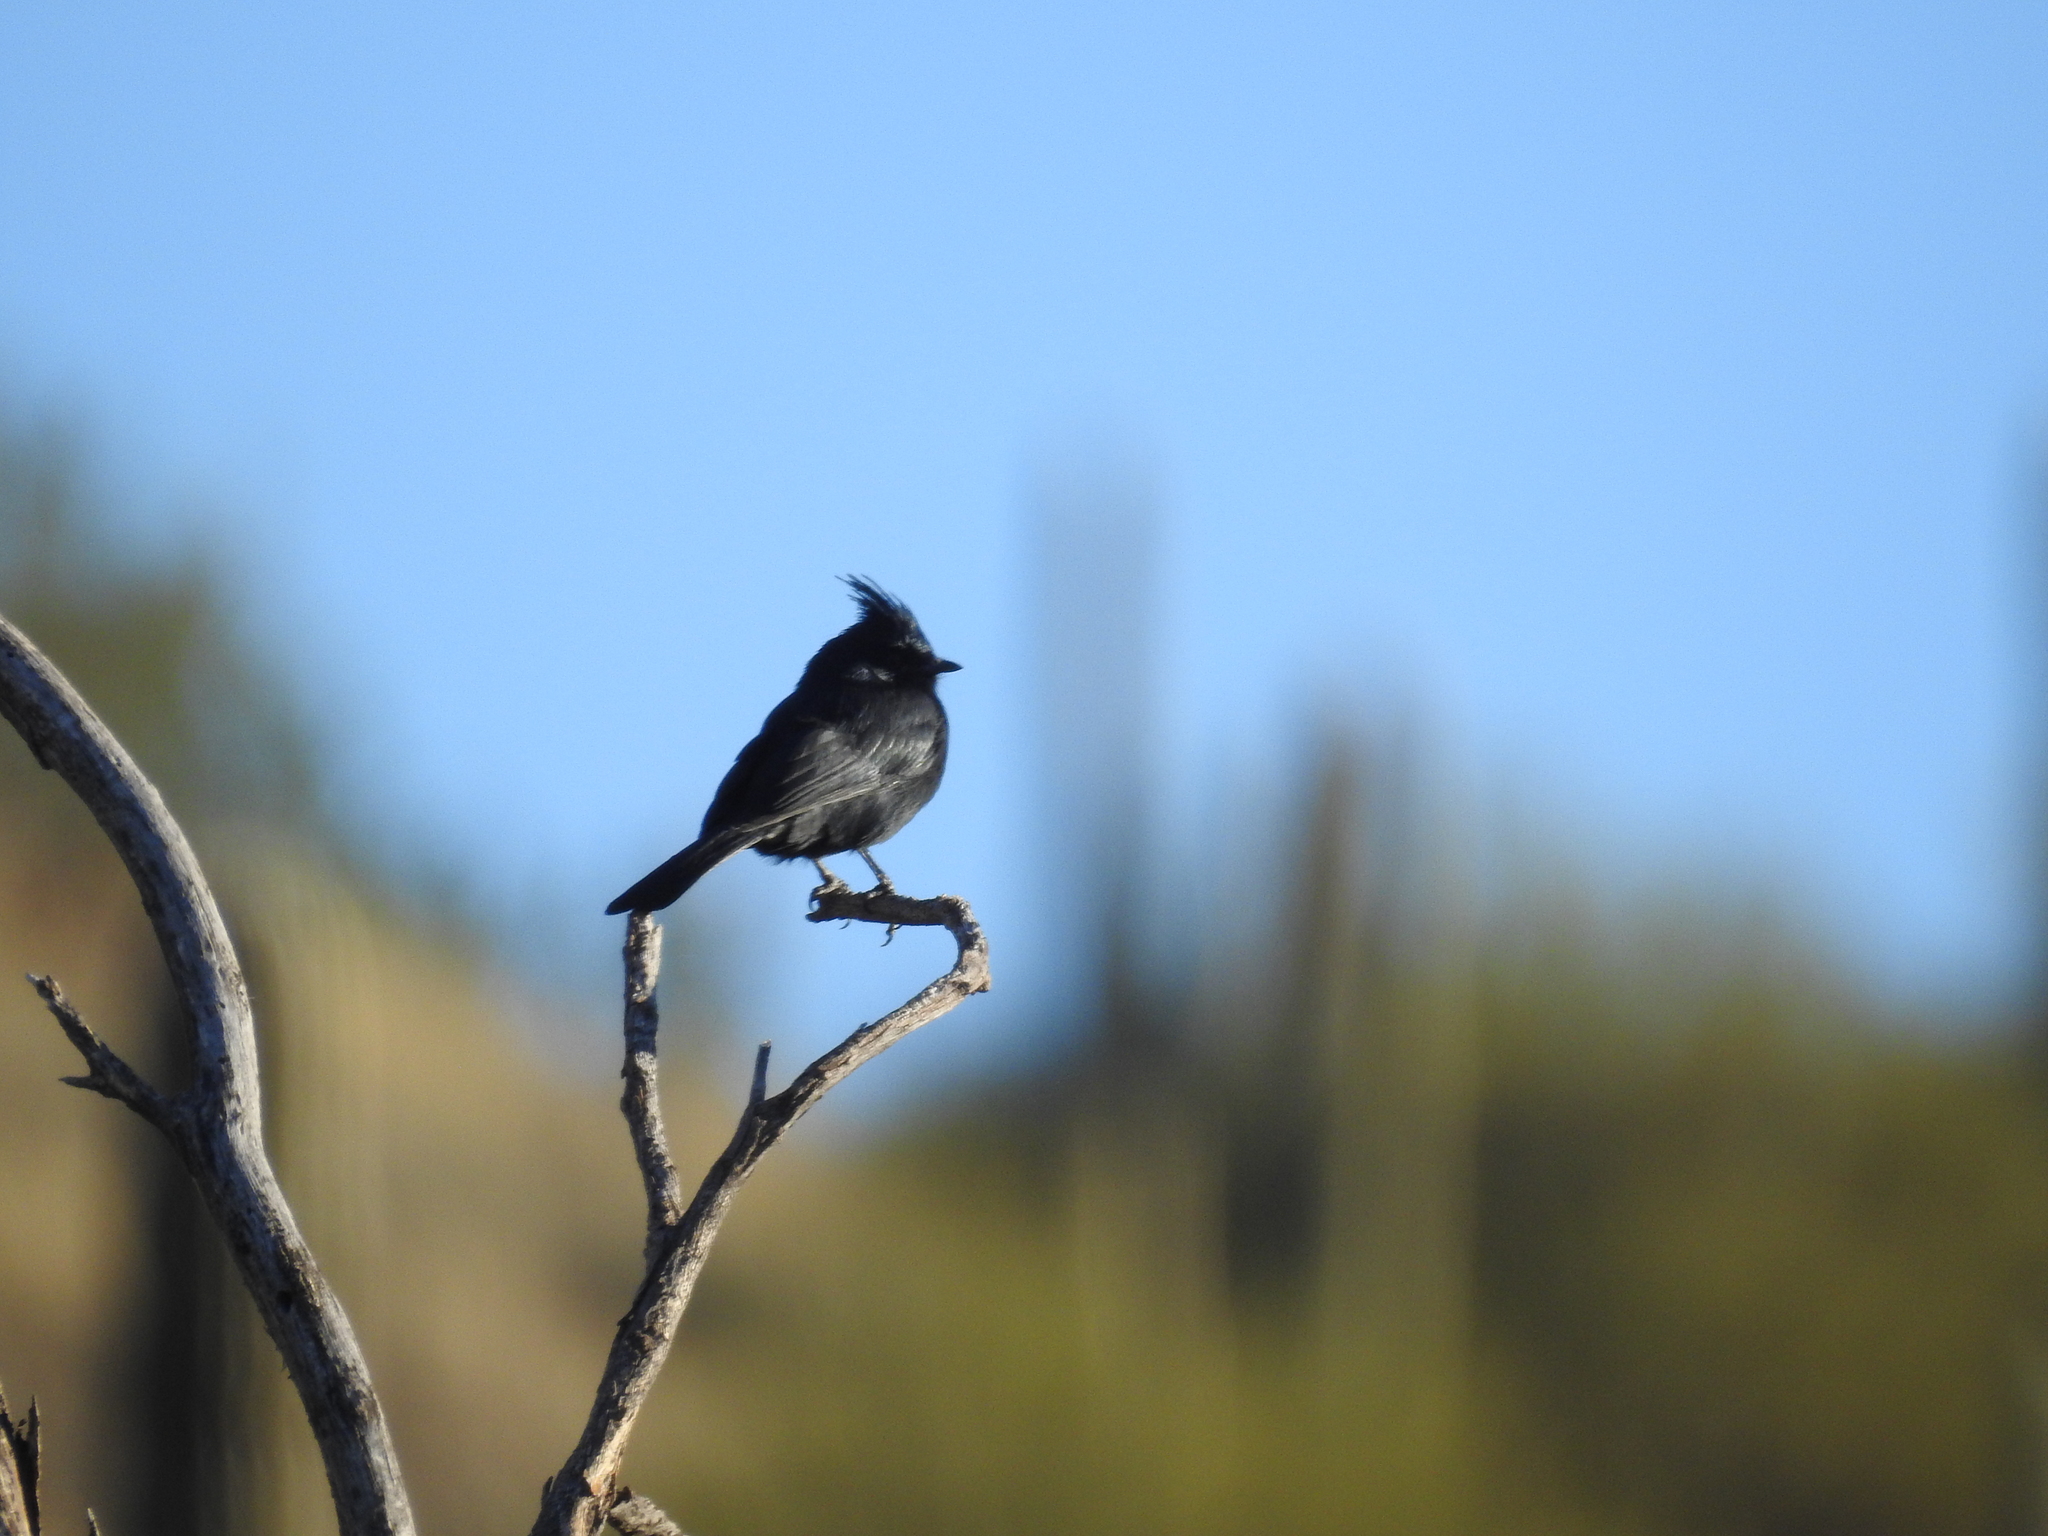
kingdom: Animalia
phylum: Chordata
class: Aves
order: Passeriformes
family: Ptilogonatidae
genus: Phainopepla
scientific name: Phainopepla nitens
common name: Phainopepla
